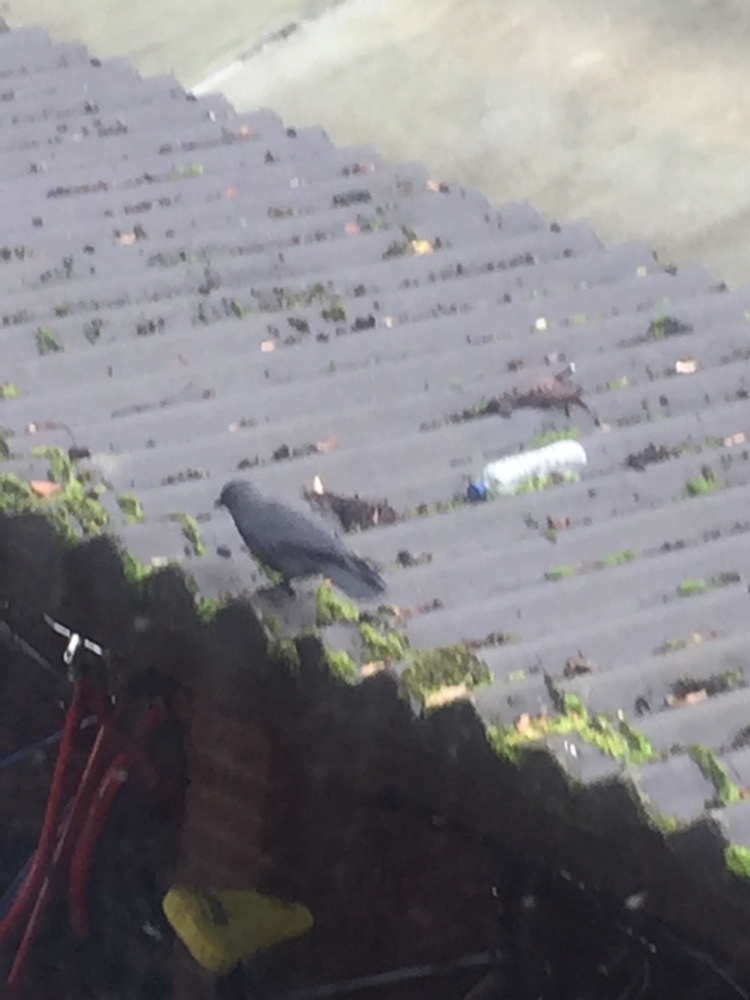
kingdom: Animalia
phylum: Chordata
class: Aves
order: Passeriformes
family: Corvidae
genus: Coloeus
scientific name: Coloeus monedula
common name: Western jackdaw
